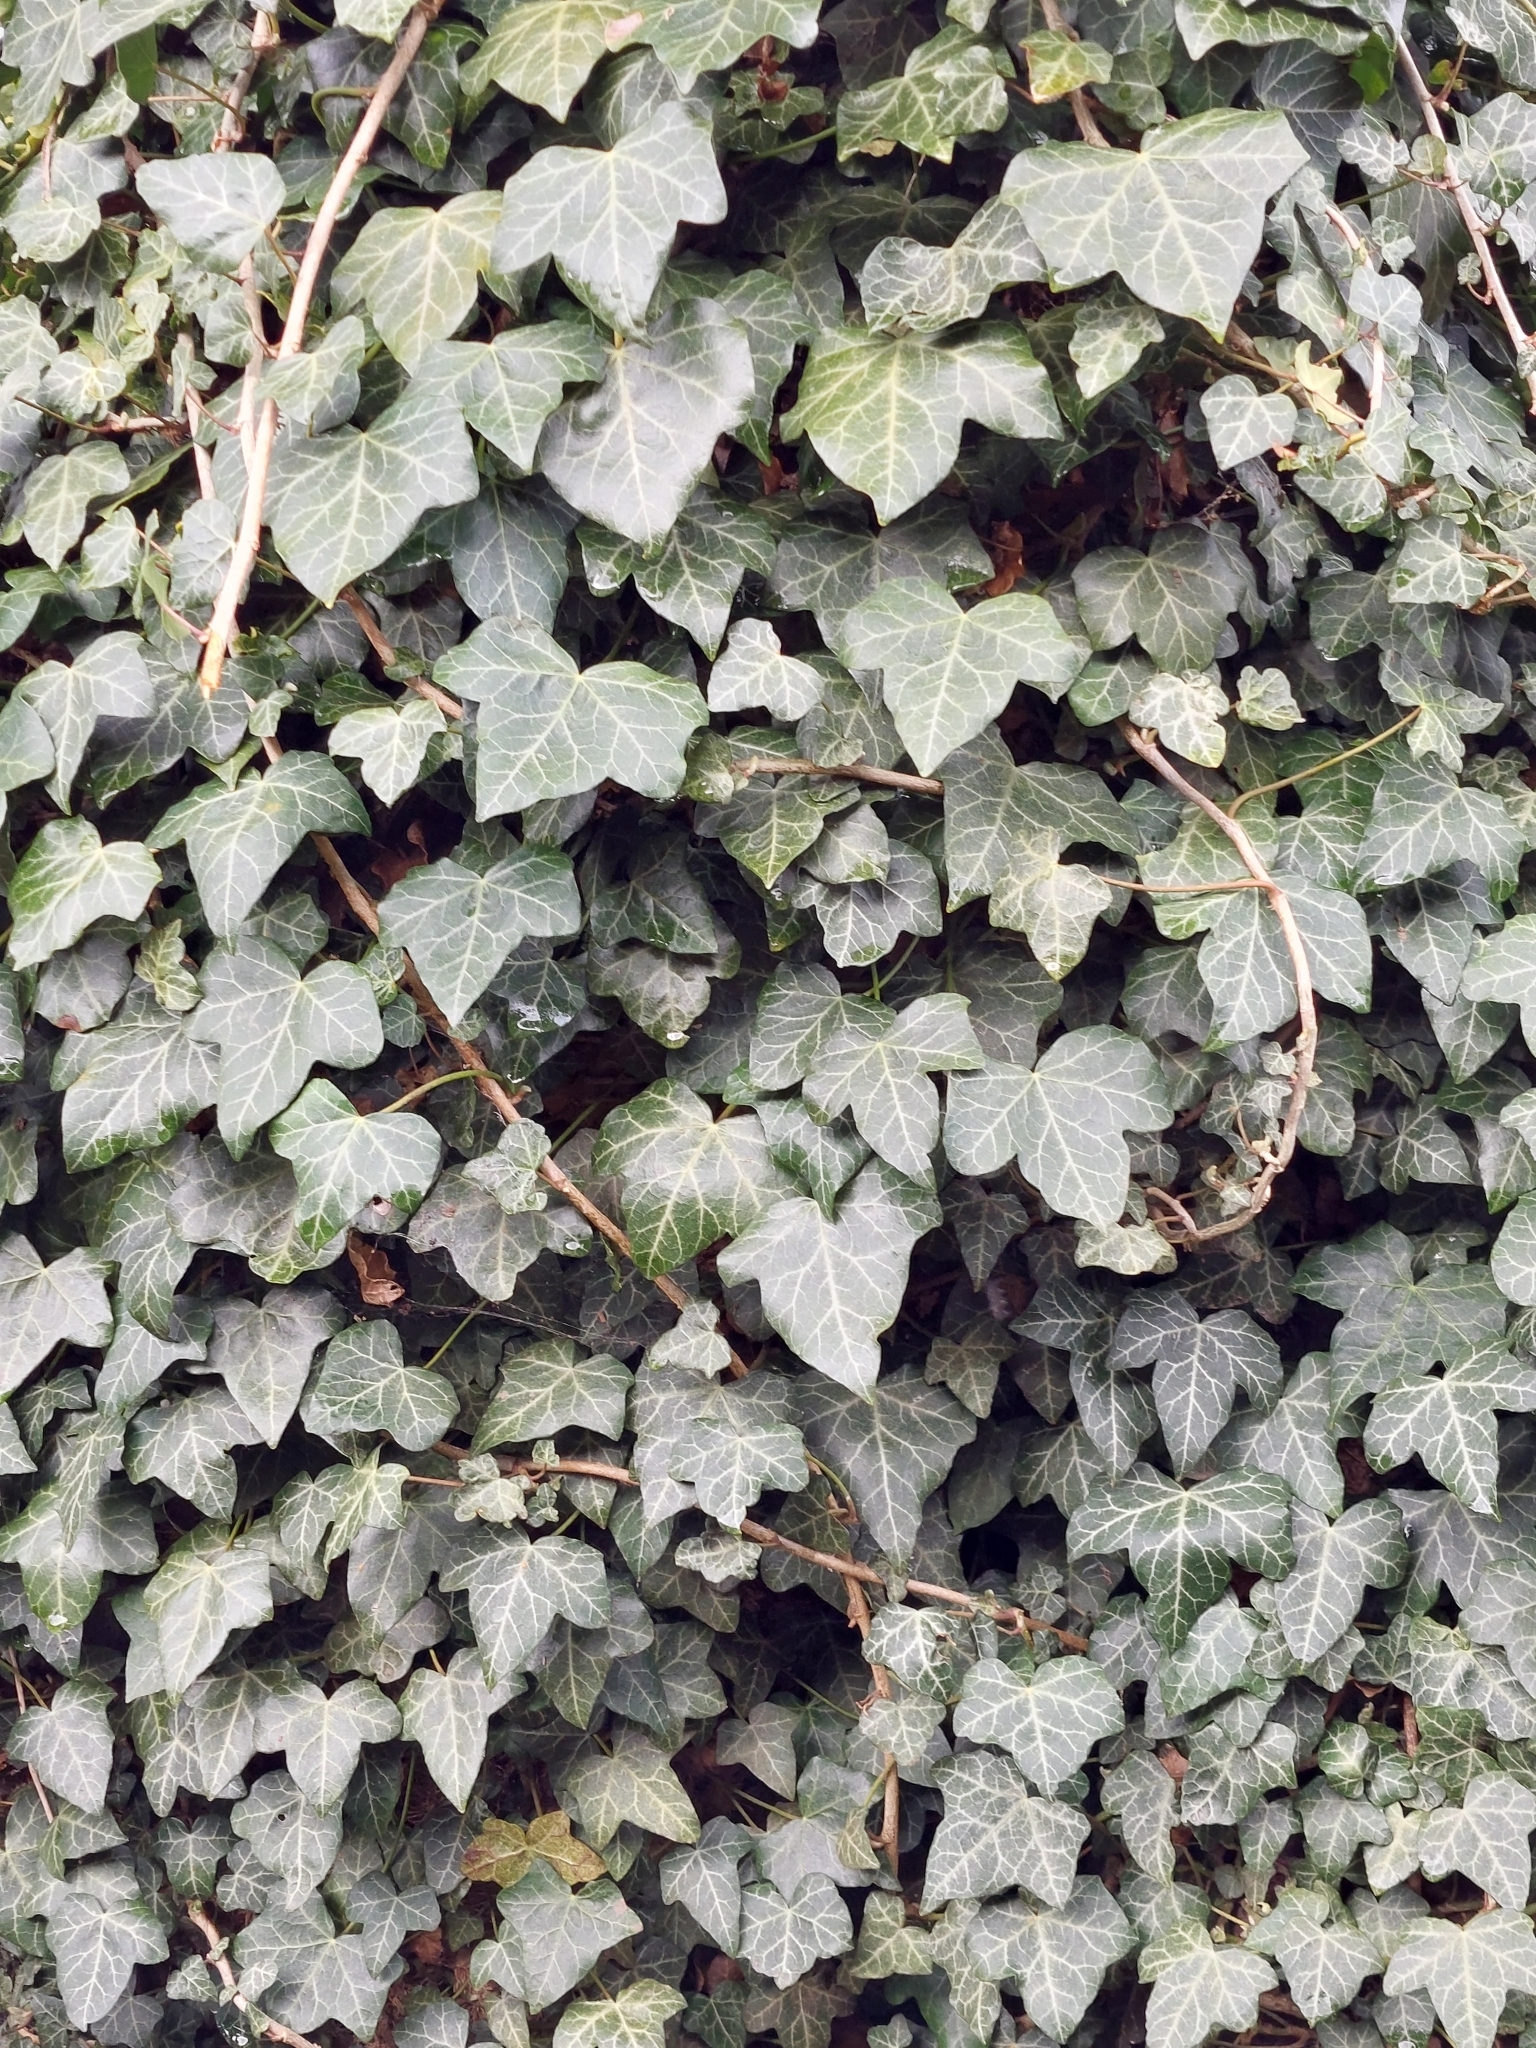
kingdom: Plantae
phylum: Tracheophyta
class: Magnoliopsida
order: Apiales
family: Araliaceae
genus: Hedera
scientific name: Hedera helix
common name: Ivy
